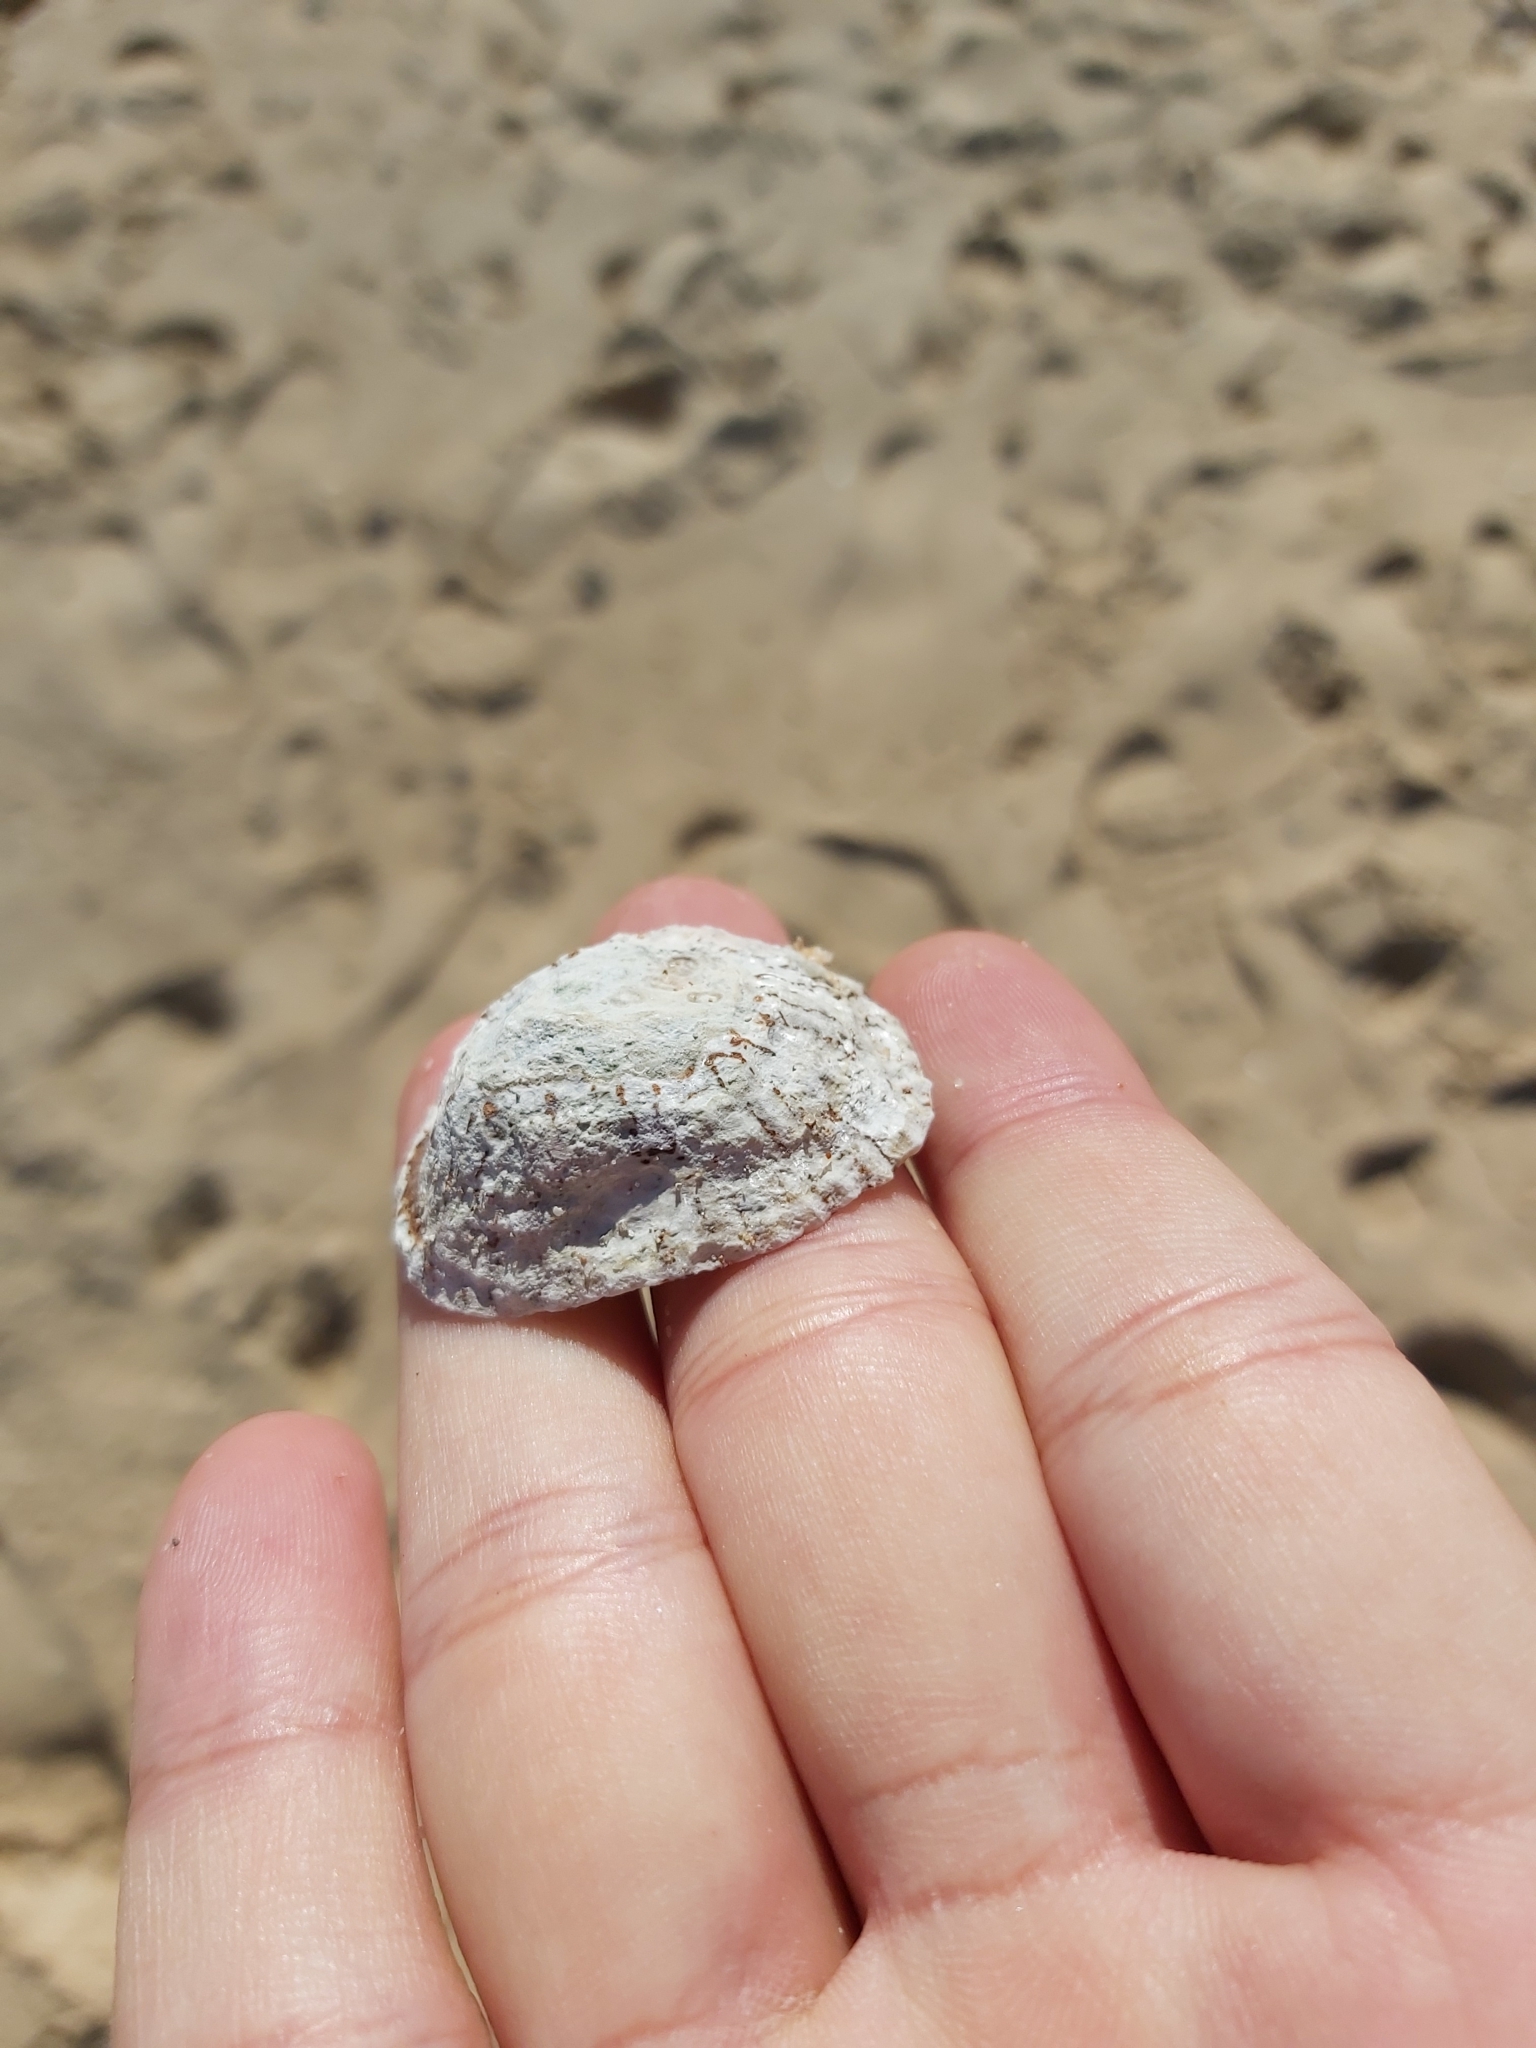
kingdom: Animalia
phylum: Mollusca
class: Gastropoda
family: Nacellidae
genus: Cellana
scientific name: Cellana tramoserica
